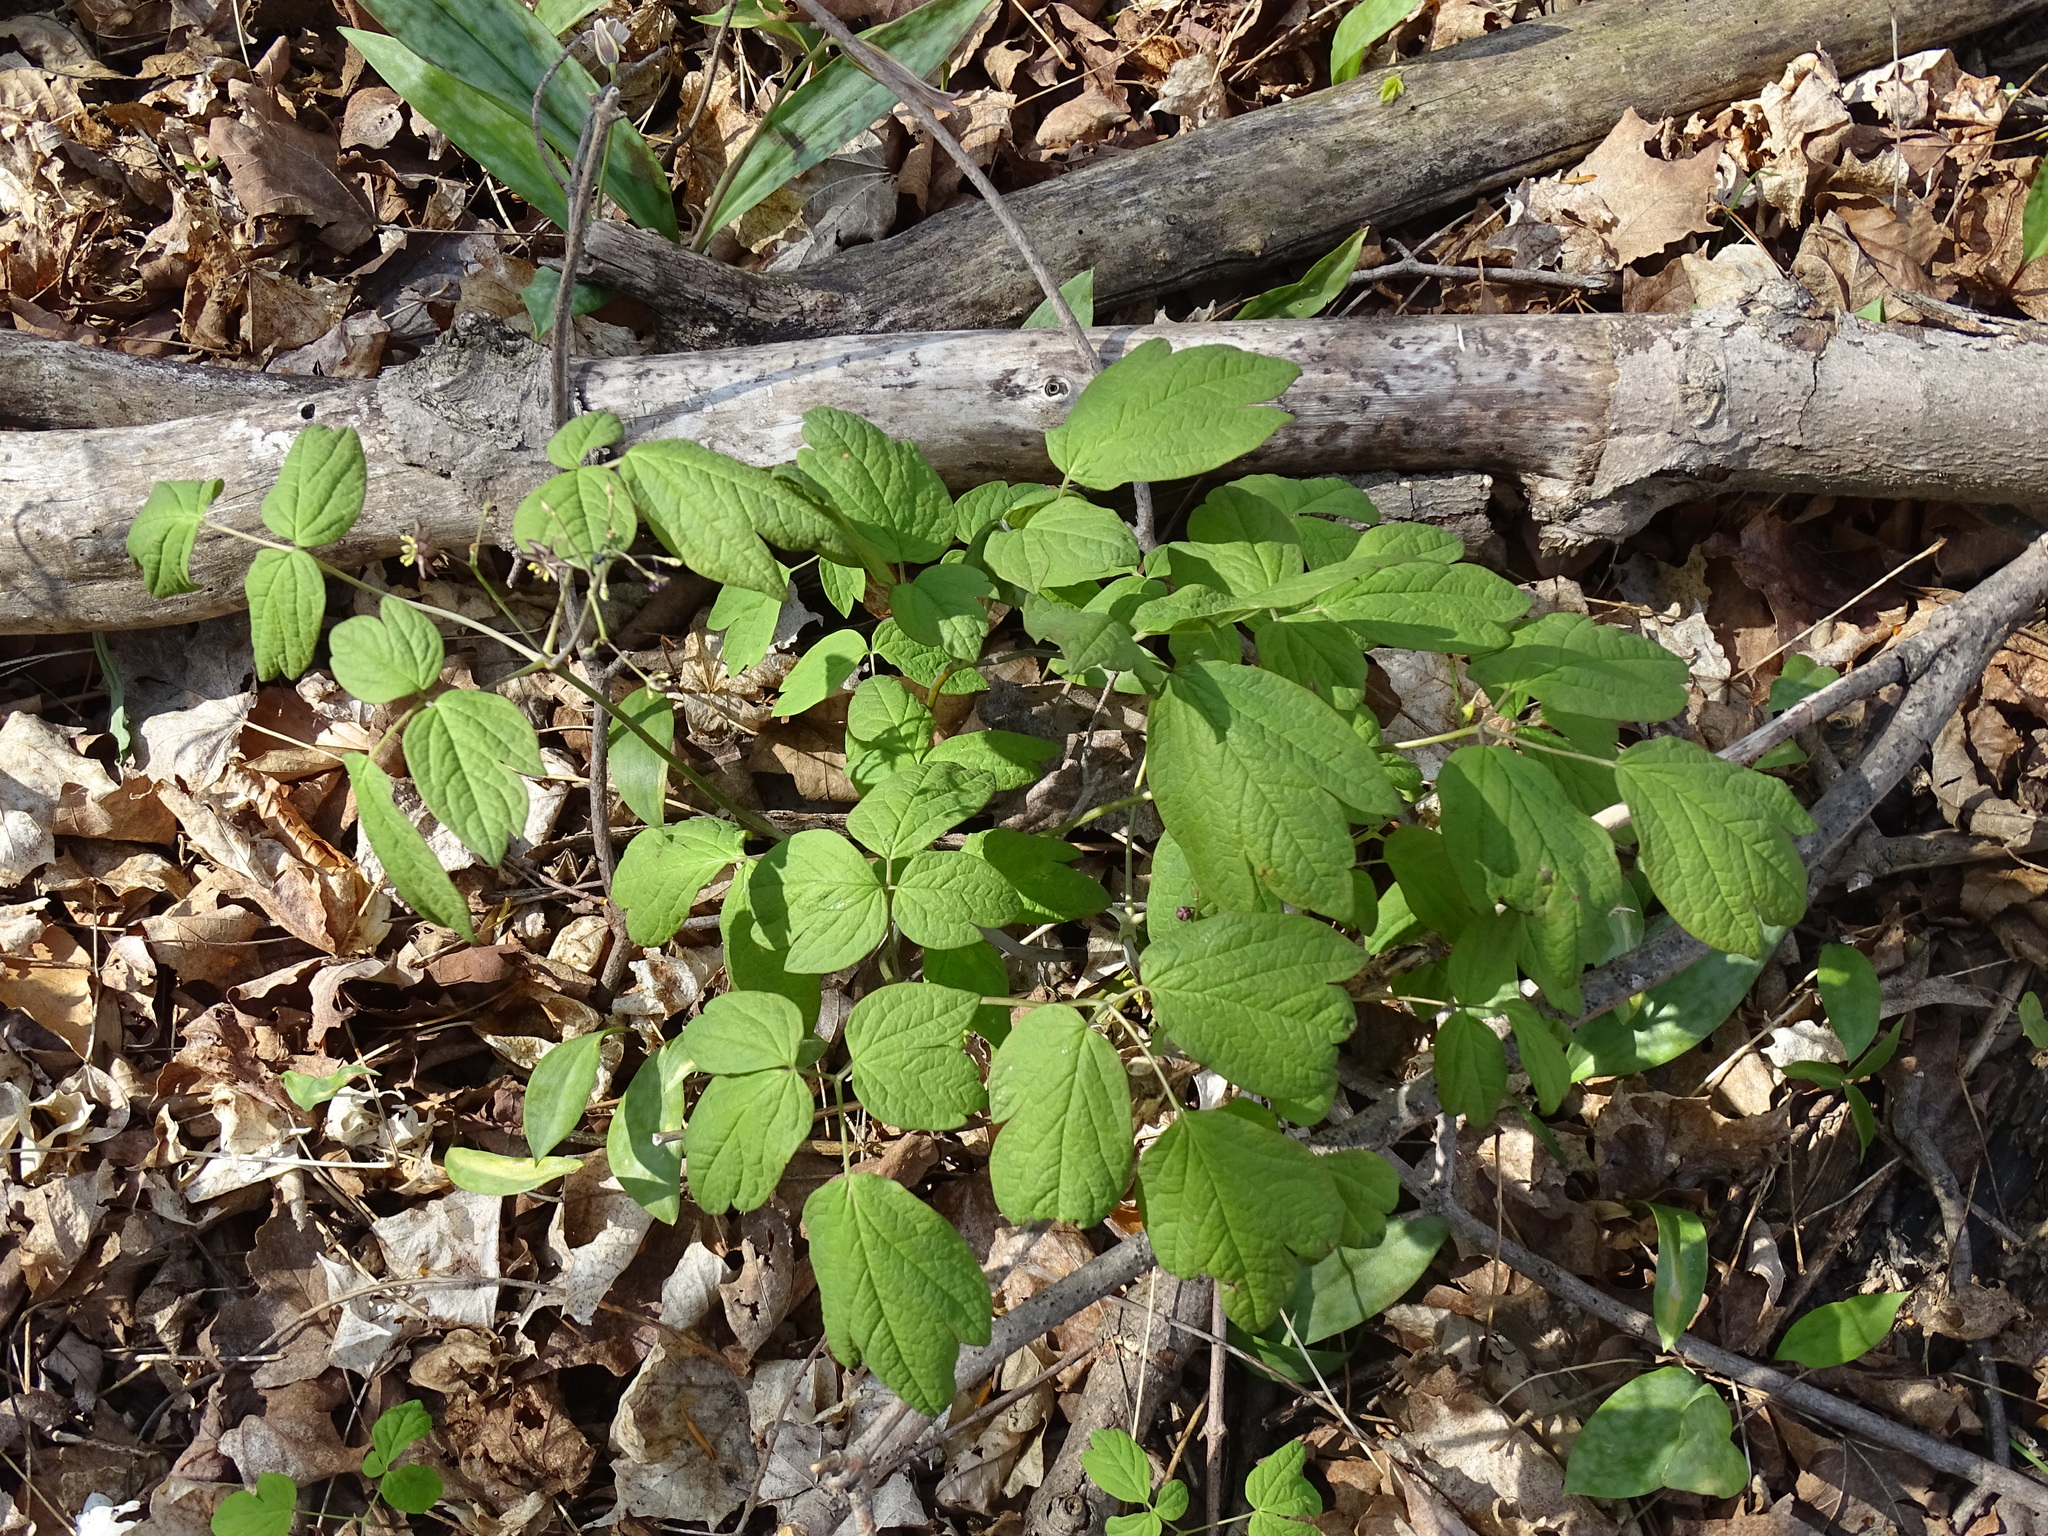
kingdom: Plantae
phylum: Tracheophyta
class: Magnoliopsida
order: Ranunculales
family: Berberidaceae
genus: Caulophyllum
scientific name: Caulophyllum giganteum
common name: Blue cohosh
